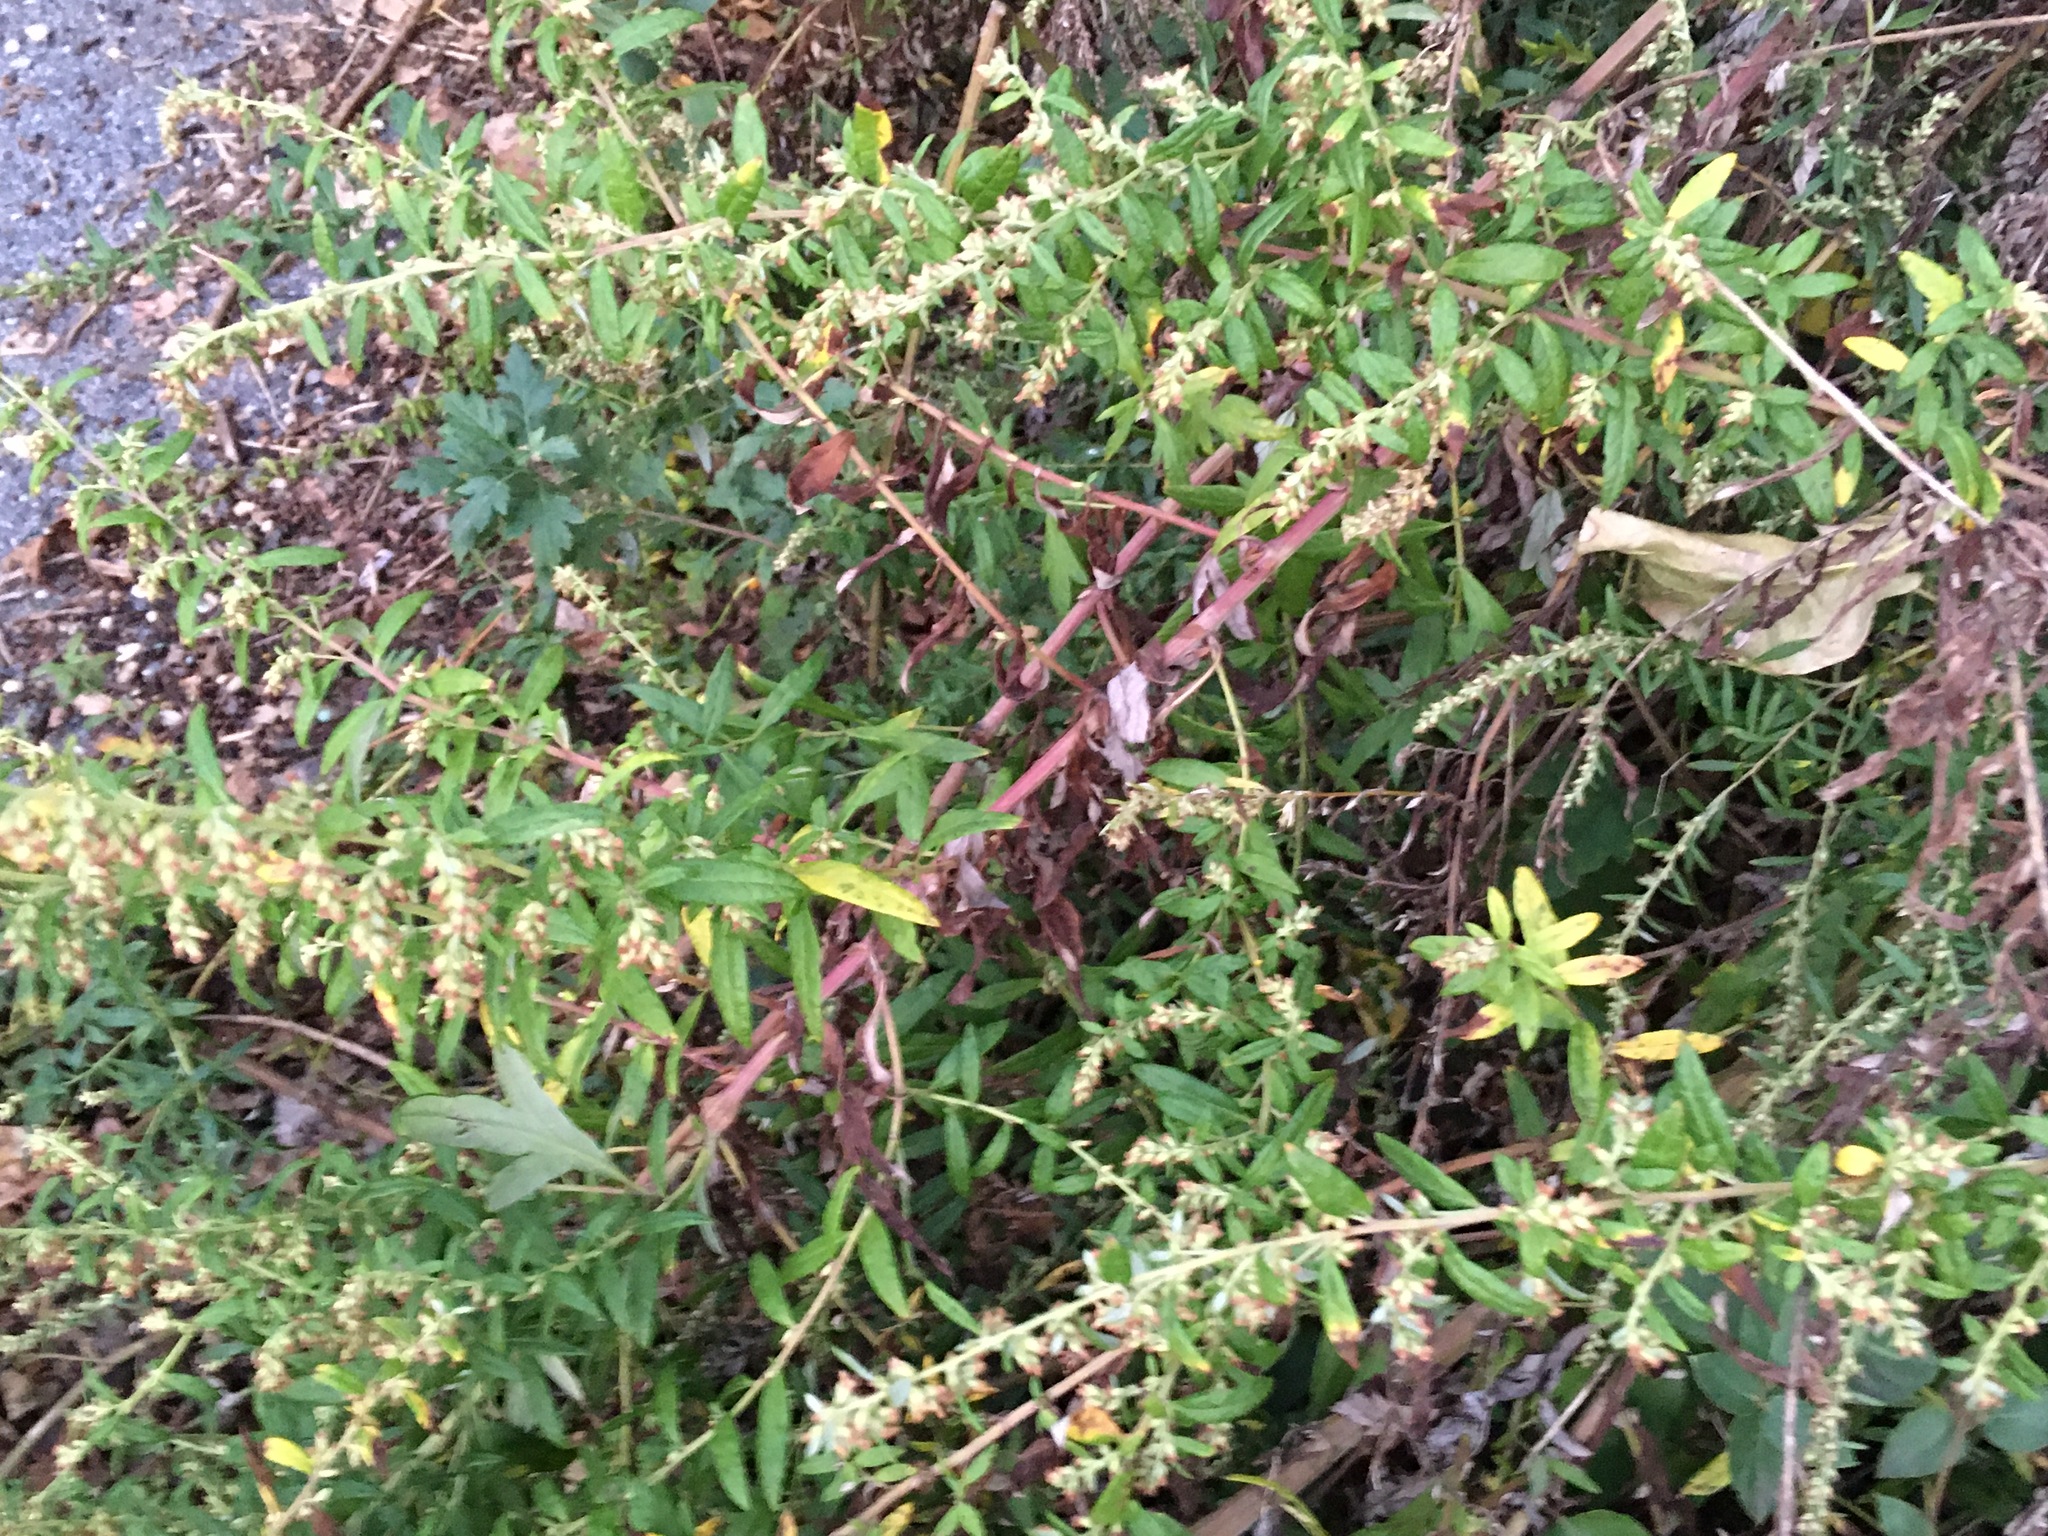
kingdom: Plantae
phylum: Tracheophyta
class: Magnoliopsida
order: Asterales
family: Asteraceae
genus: Artemisia
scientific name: Artemisia vulgaris
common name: Mugwort
